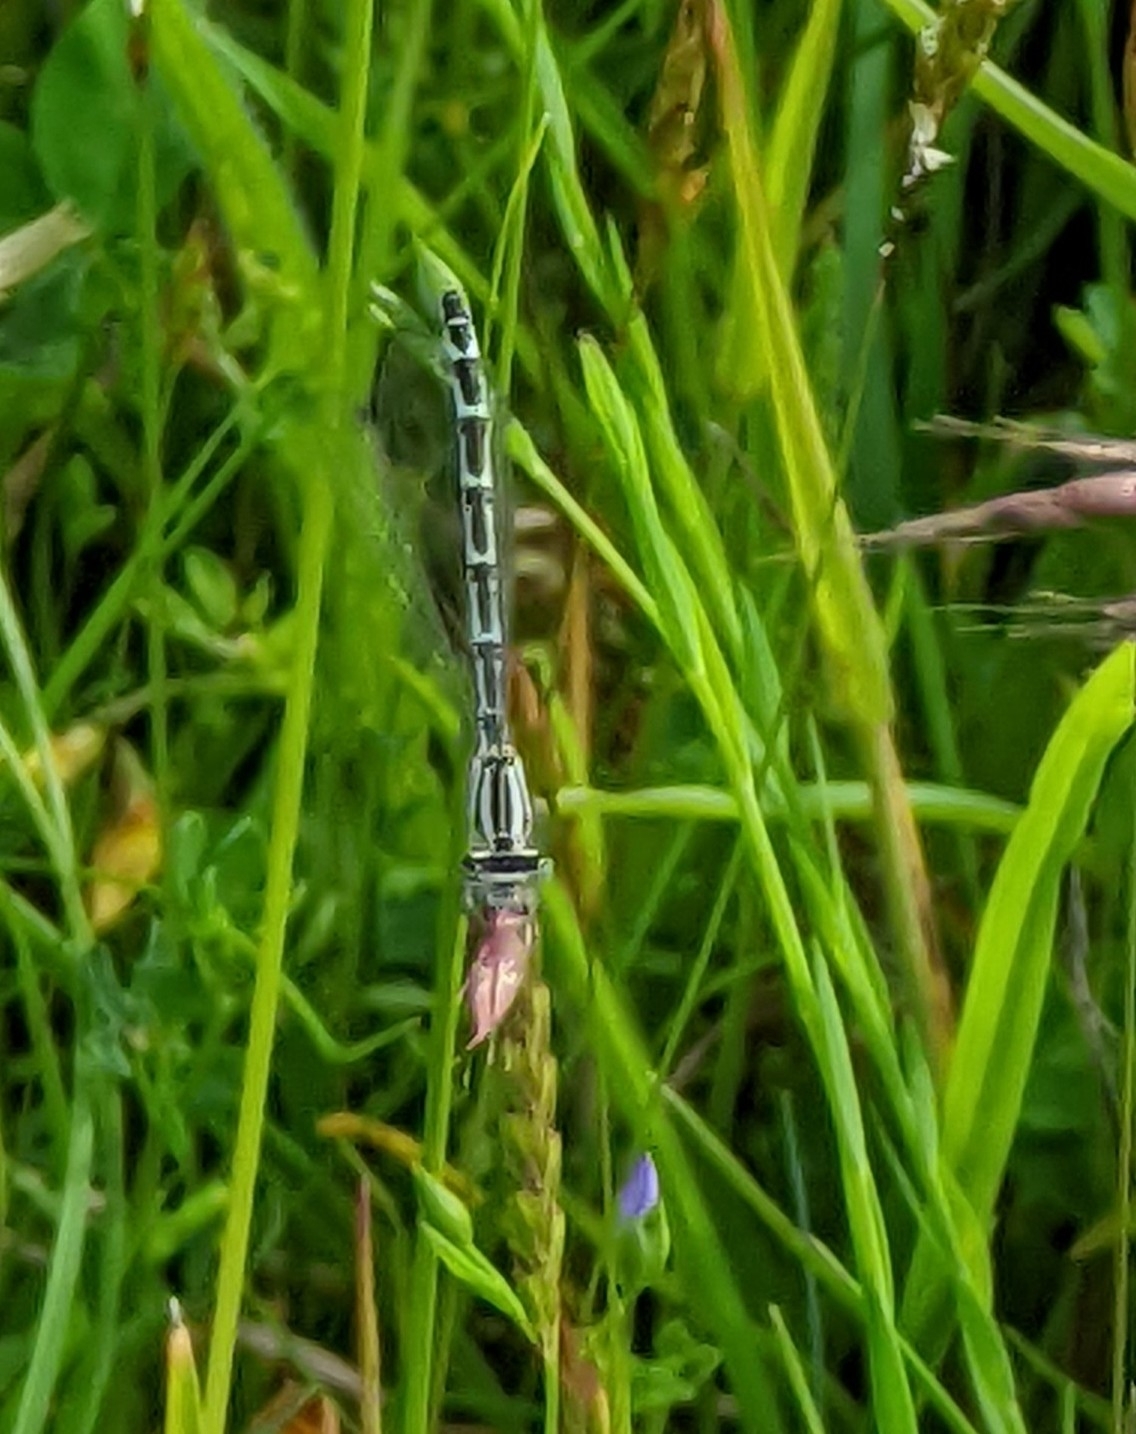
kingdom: Animalia
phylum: Arthropoda
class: Insecta
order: Odonata
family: Coenagrionidae
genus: Enallagma
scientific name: Enallagma cyathigerum
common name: Common blue damselfly
